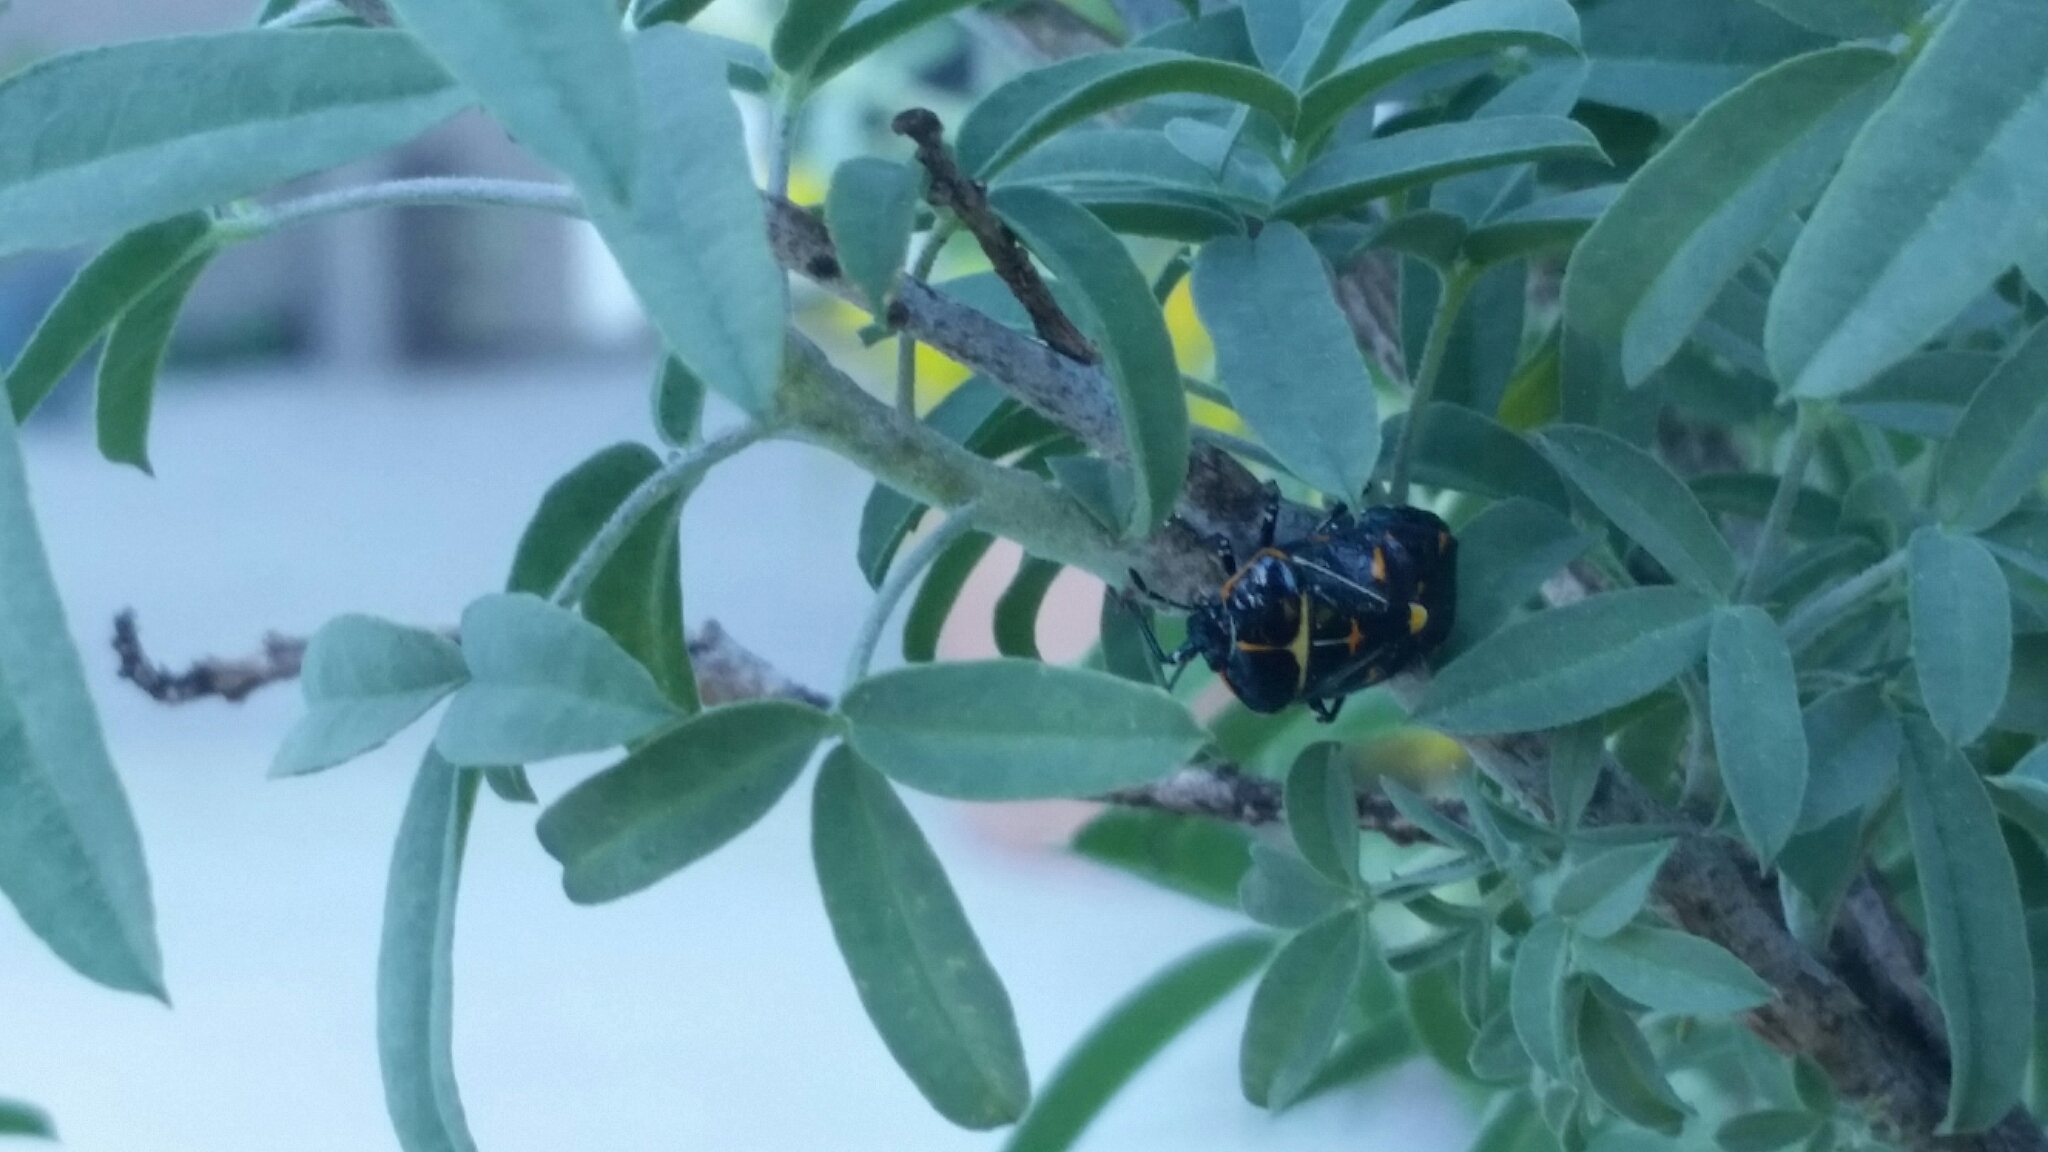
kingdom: Animalia
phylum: Arthropoda
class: Insecta
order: Hemiptera
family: Pentatomidae
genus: Murgantia
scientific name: Murgantia histrionica
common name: Harlequin bug
